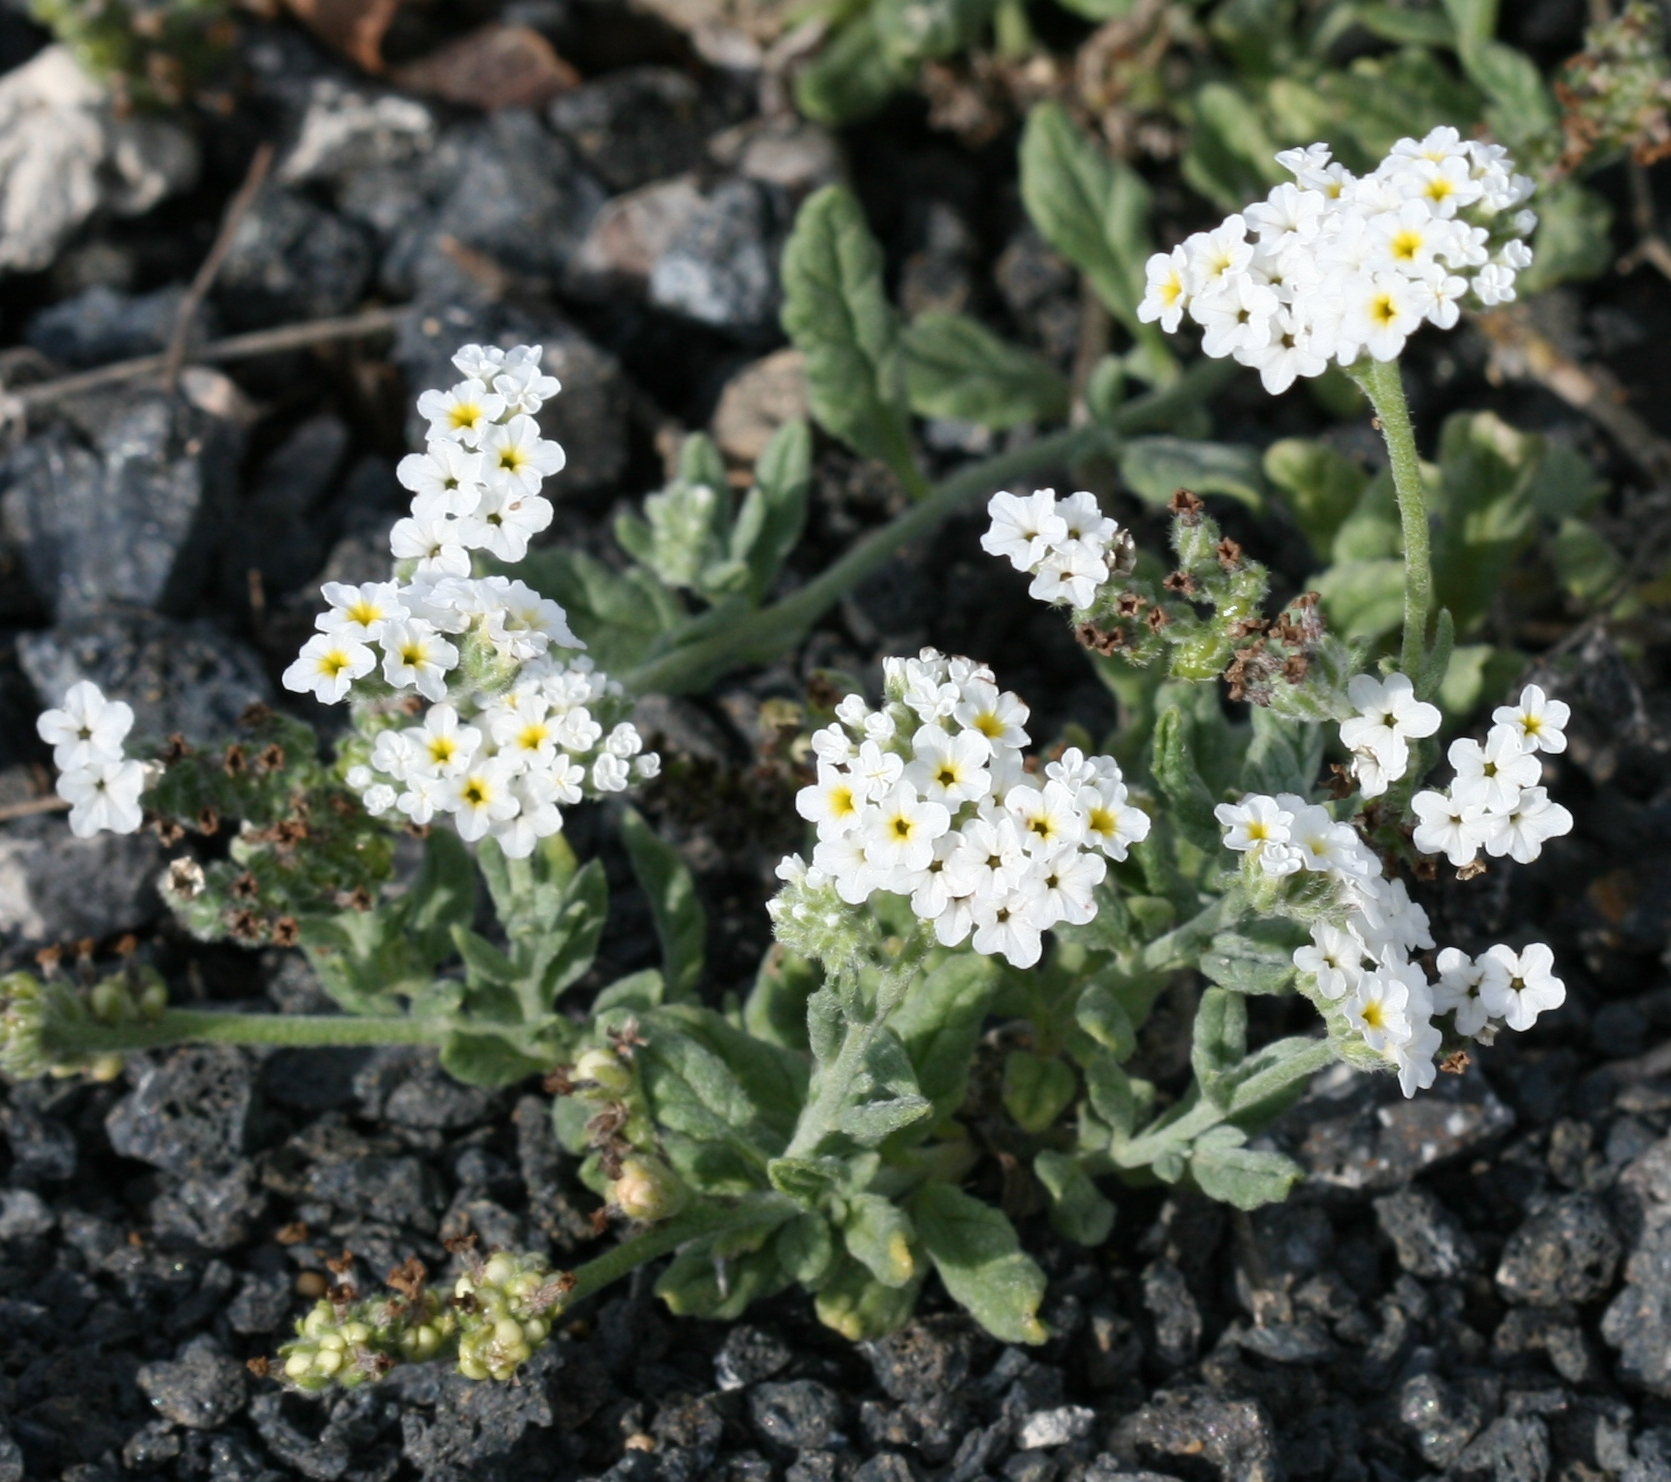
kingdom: Plantae
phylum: Tracheophyta
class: Magnoliopsida
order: Boraginales
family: Heliotropiaceae
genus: Heliotropium
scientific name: Heliotropium ramosissimum
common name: Wavy heliotrope
